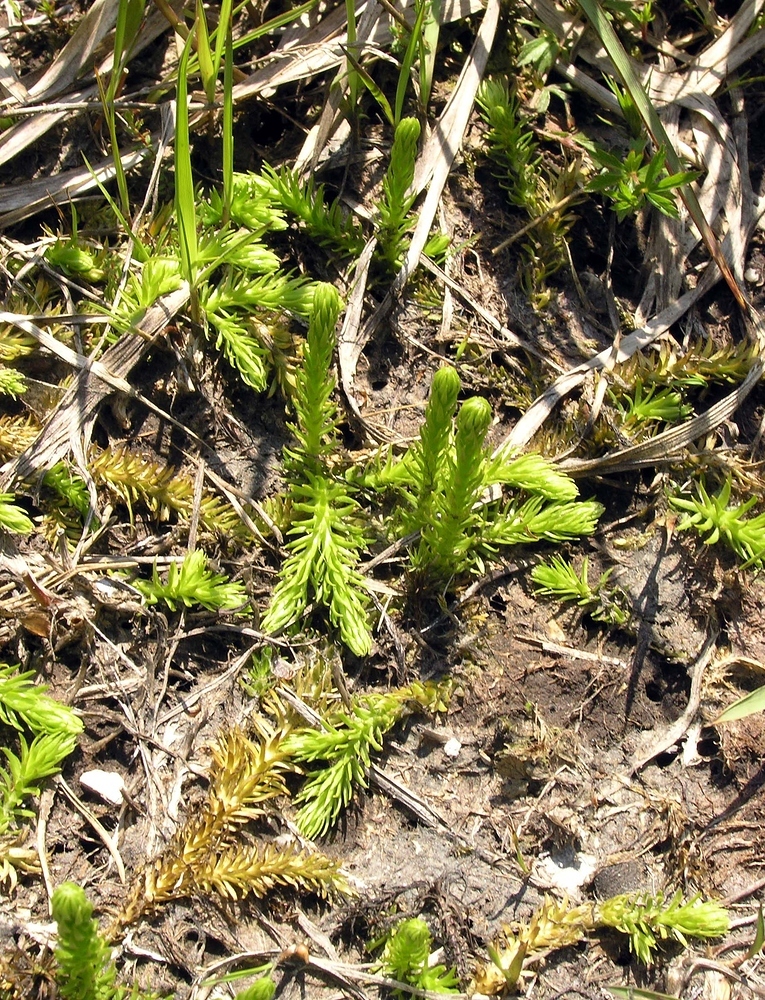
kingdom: Plantae
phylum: Tracheophyta
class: Lycopodiopsida
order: Lycopodiales
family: Lycopodiaceae
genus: Lycopodiella
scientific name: Lycopodiella inundata
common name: Marsh clubmoss
